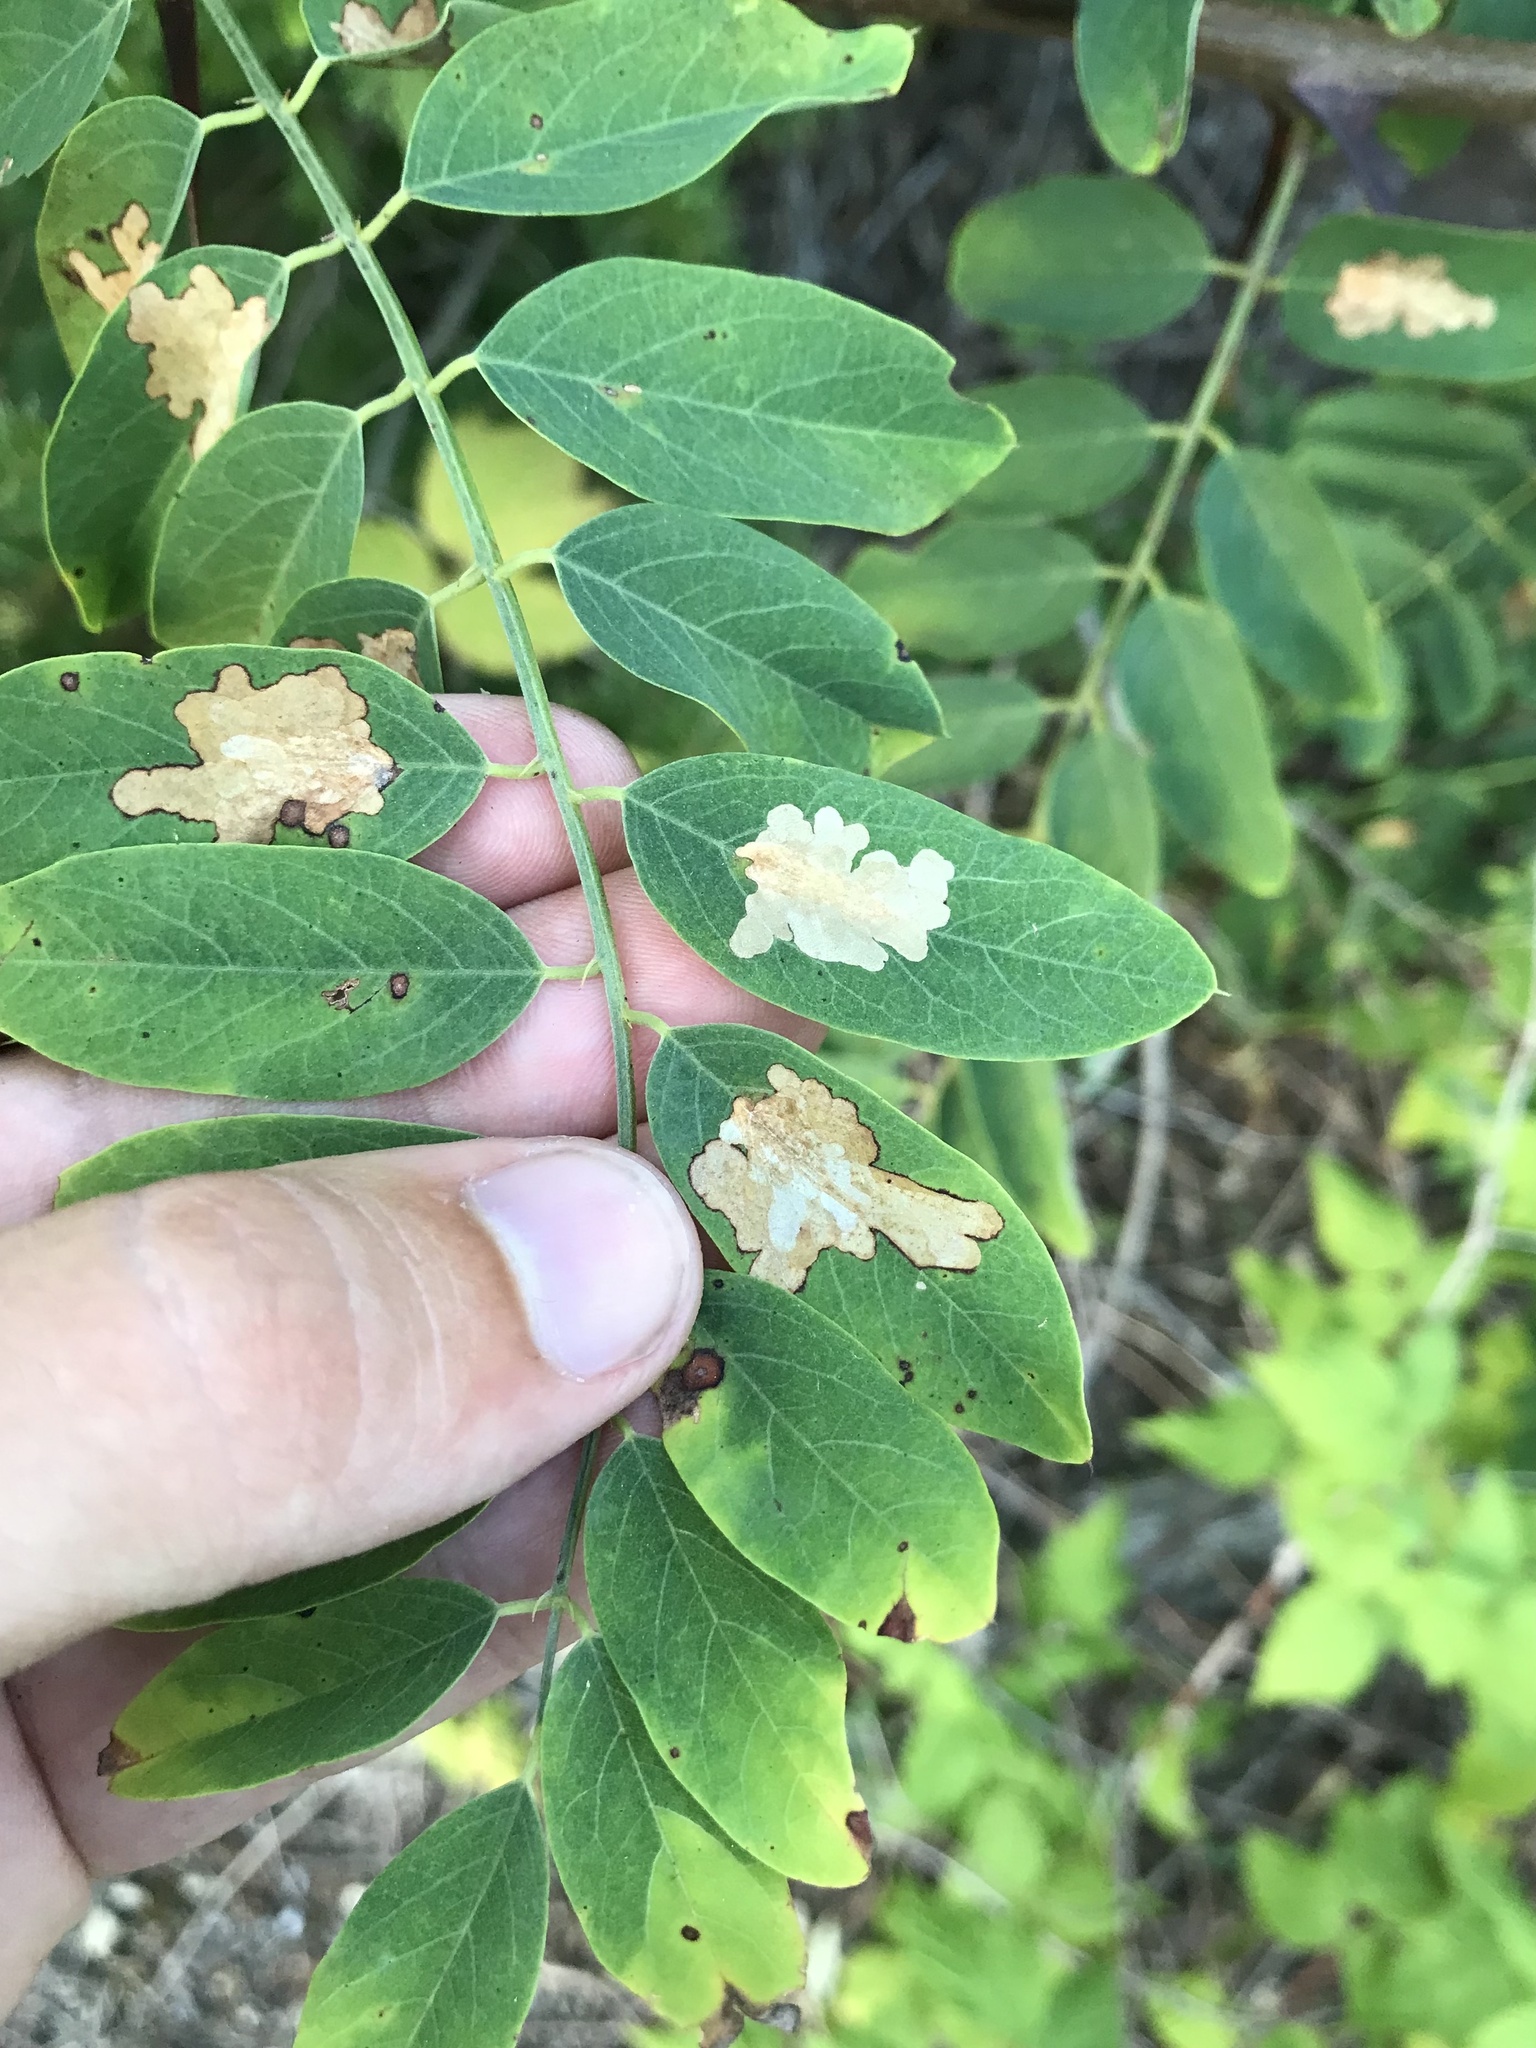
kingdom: Animalia
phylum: Arthropoda
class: Insecta
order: Lepidoptera
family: Gracillariidae
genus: Parectopa
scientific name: Parectopa robiniella
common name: Locust digitate leafminer
